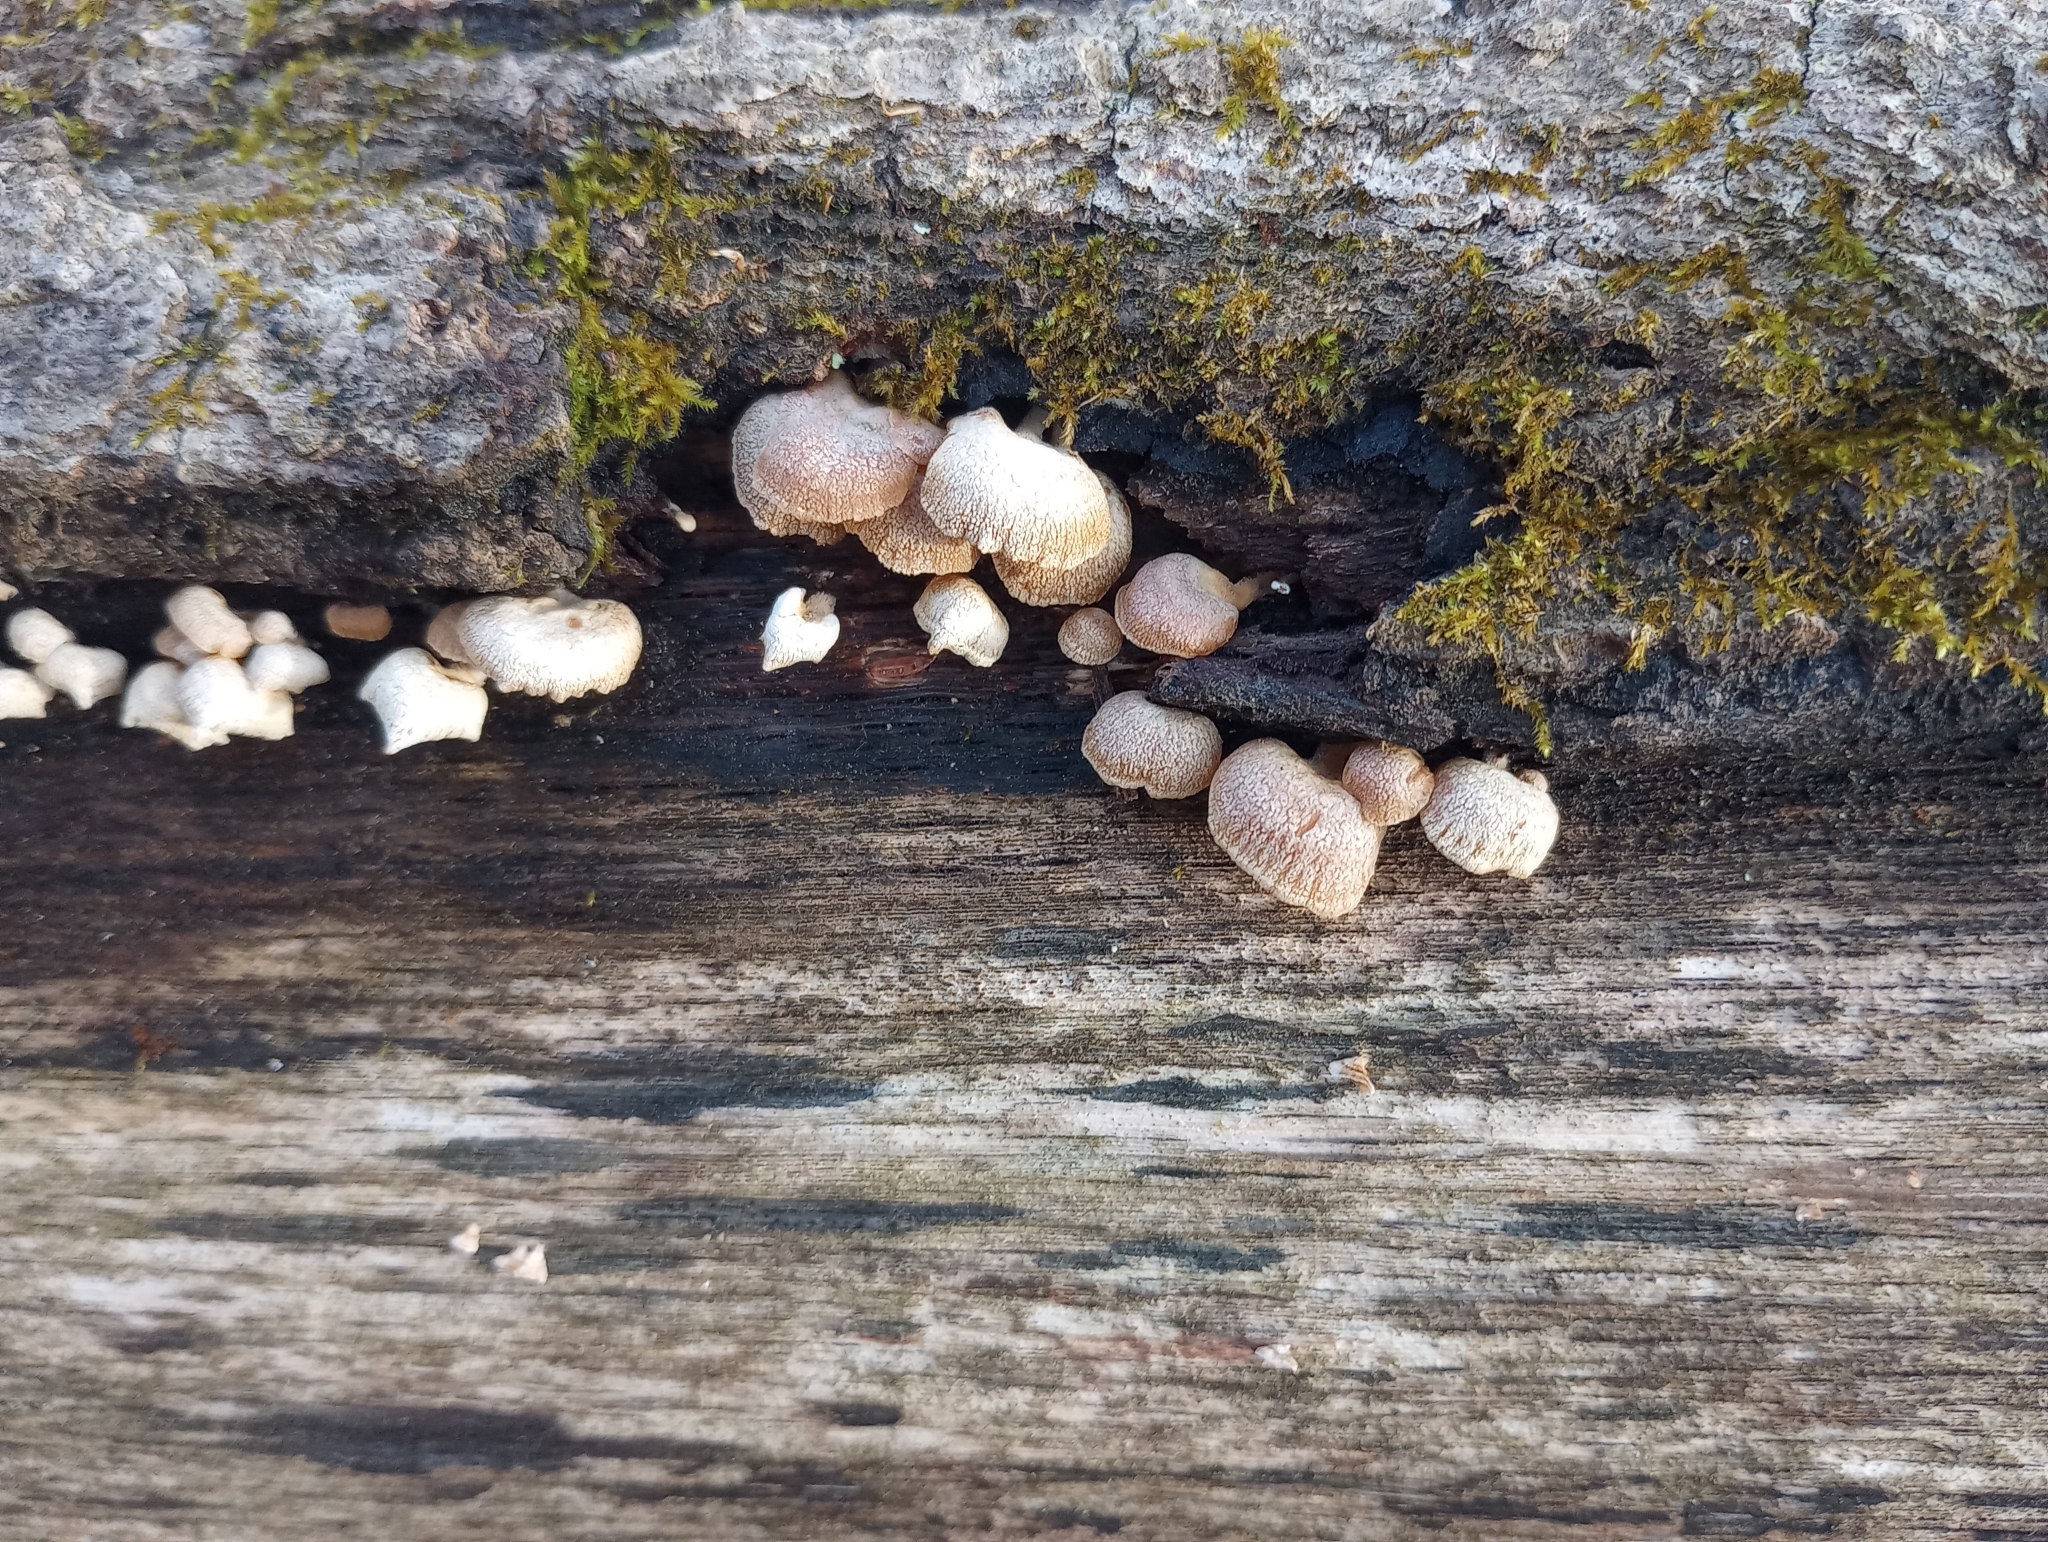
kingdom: Fungi
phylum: Basidiomycota
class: Agaricomycetes
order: Agaricales
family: Mycenaceae
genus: Panellus
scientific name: Panellus stipticus
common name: Bitter oysterling
